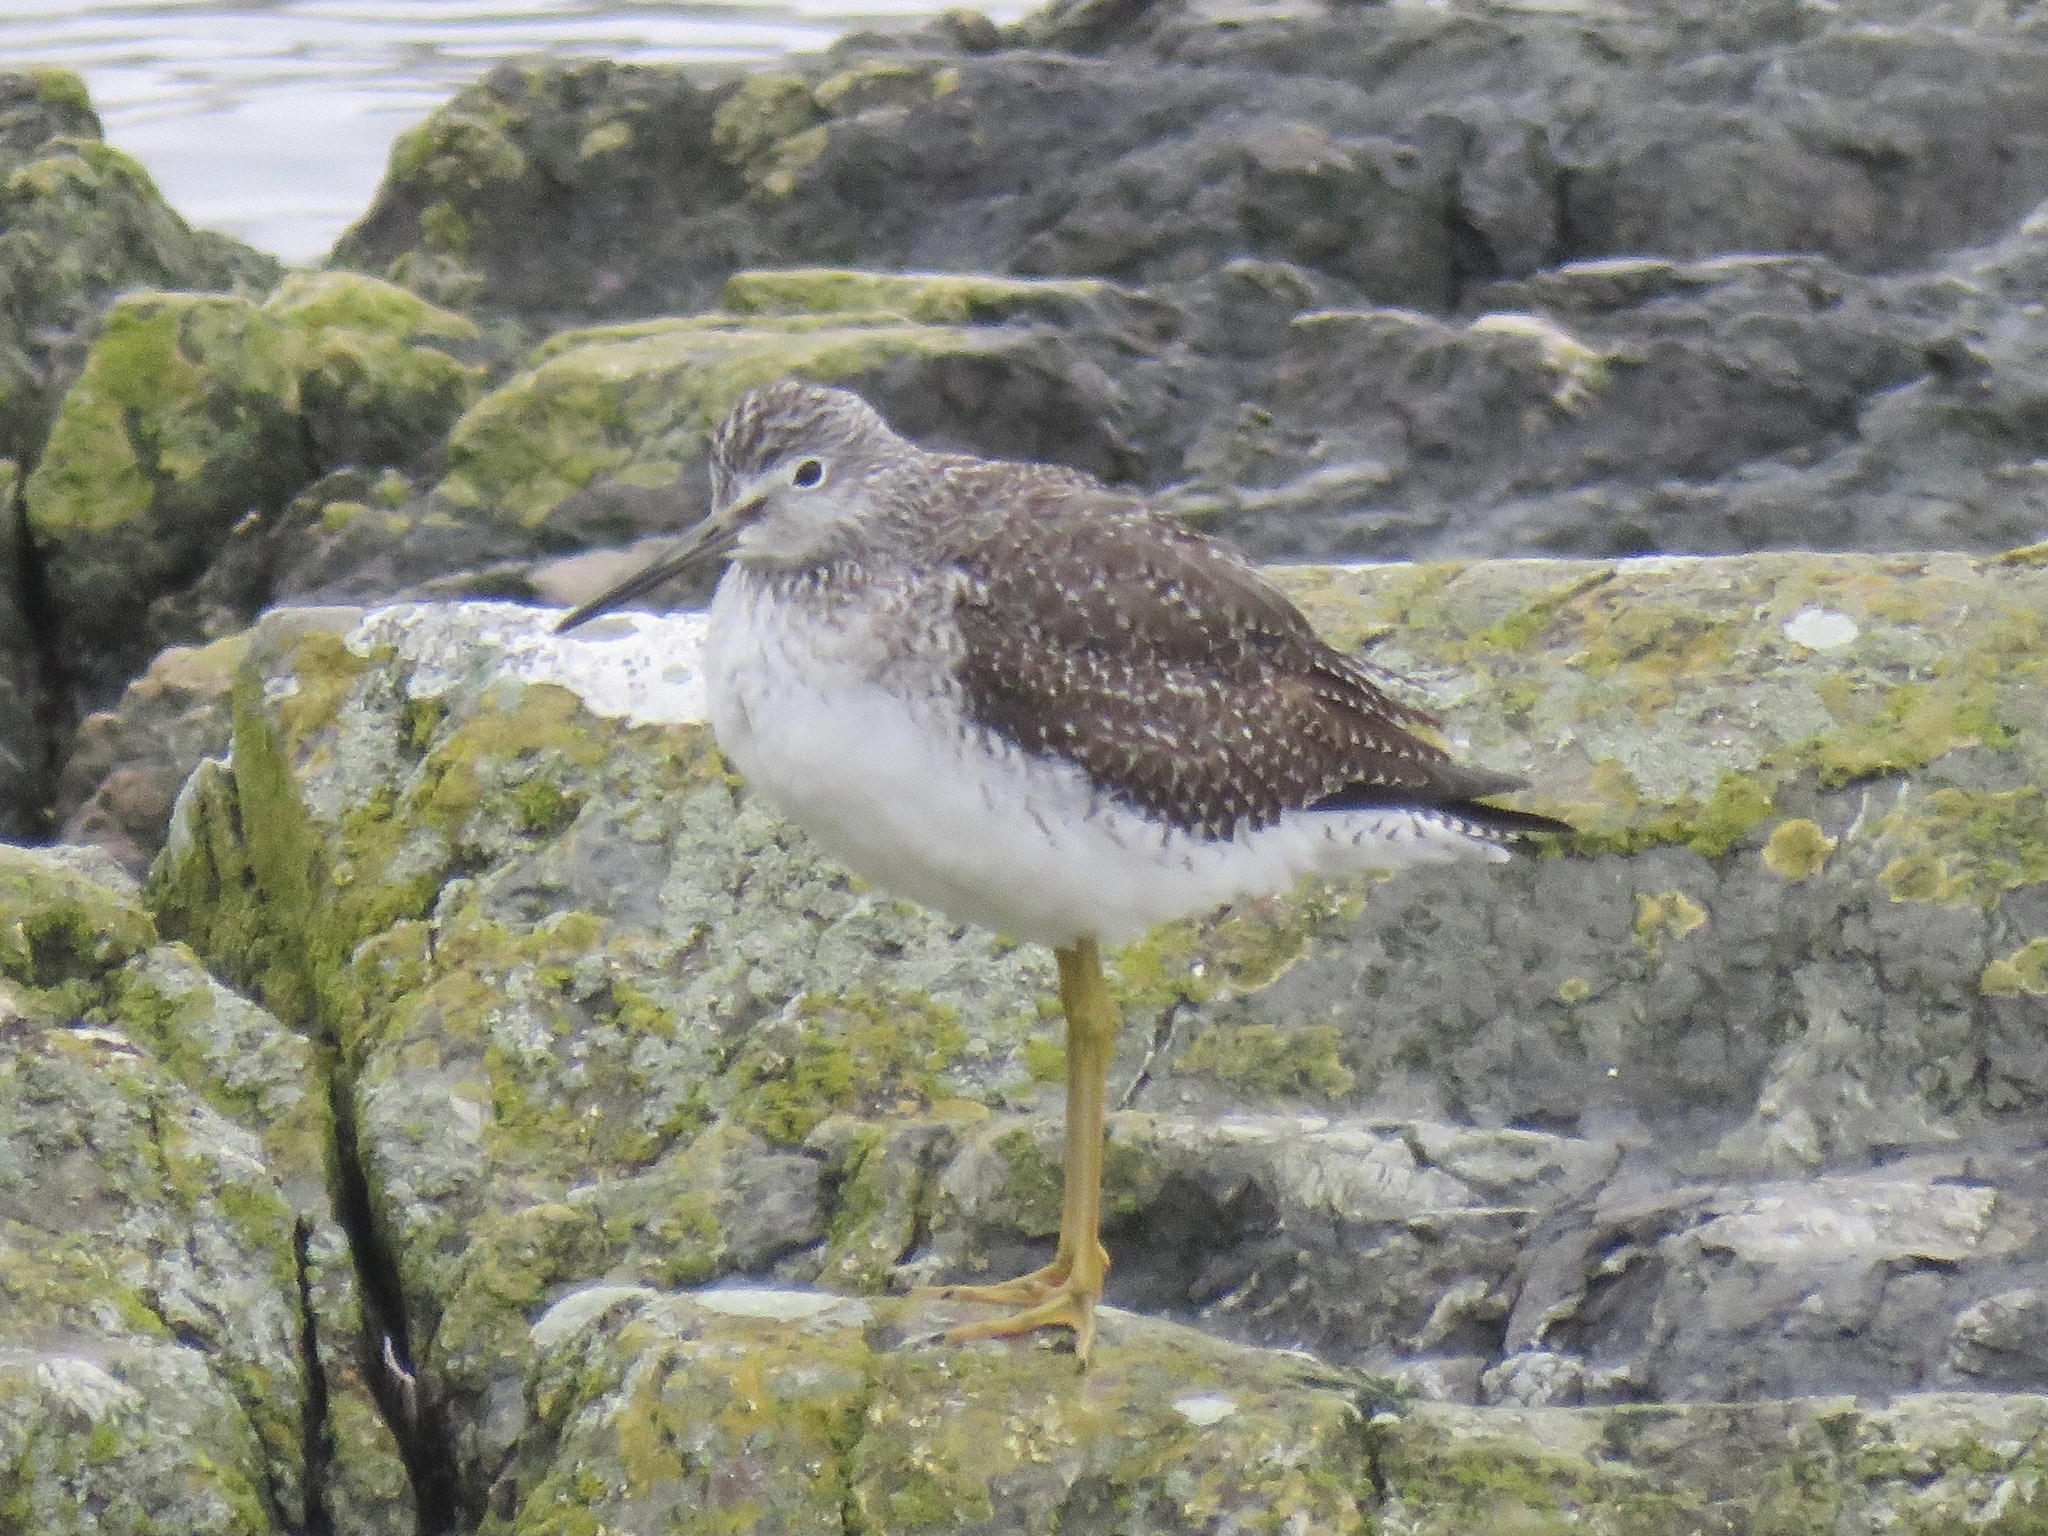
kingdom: Animalia
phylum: Chordata
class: Aves
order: Charadriiformes
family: Scolopacidae
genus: Tringa
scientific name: Tringa melanoleuca
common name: Greater yellowlegs
